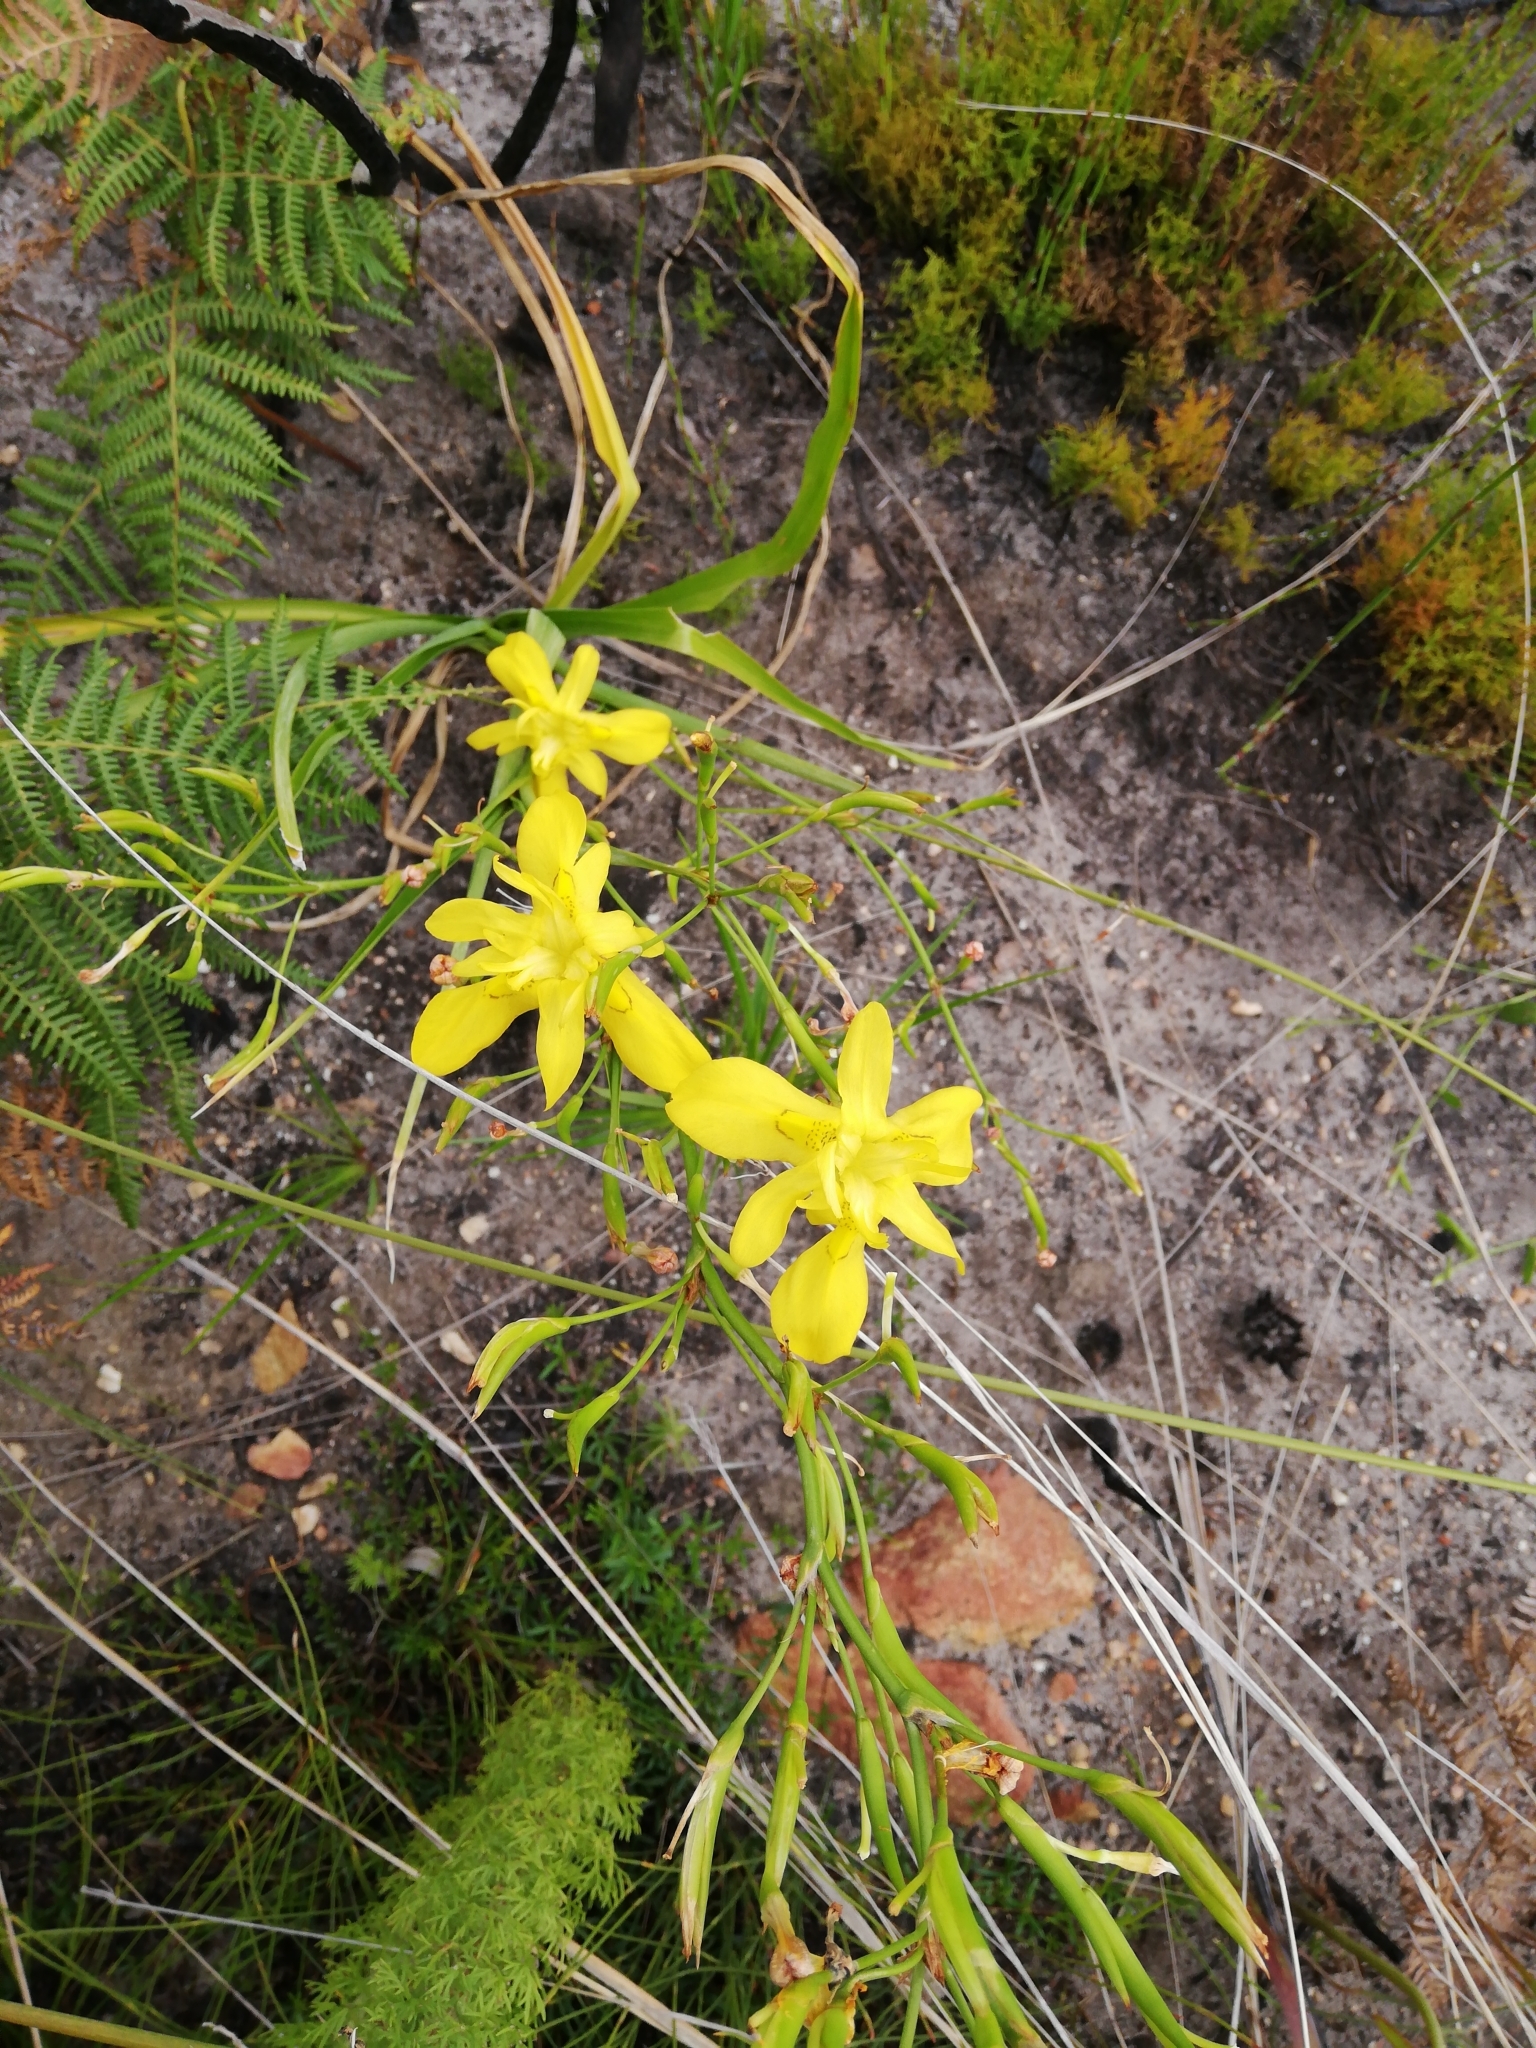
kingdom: Plantae
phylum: Tracheophyta
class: Liliopsida
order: Asparagales
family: Iridaceae
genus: Moraea
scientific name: Moraea ramosissima
